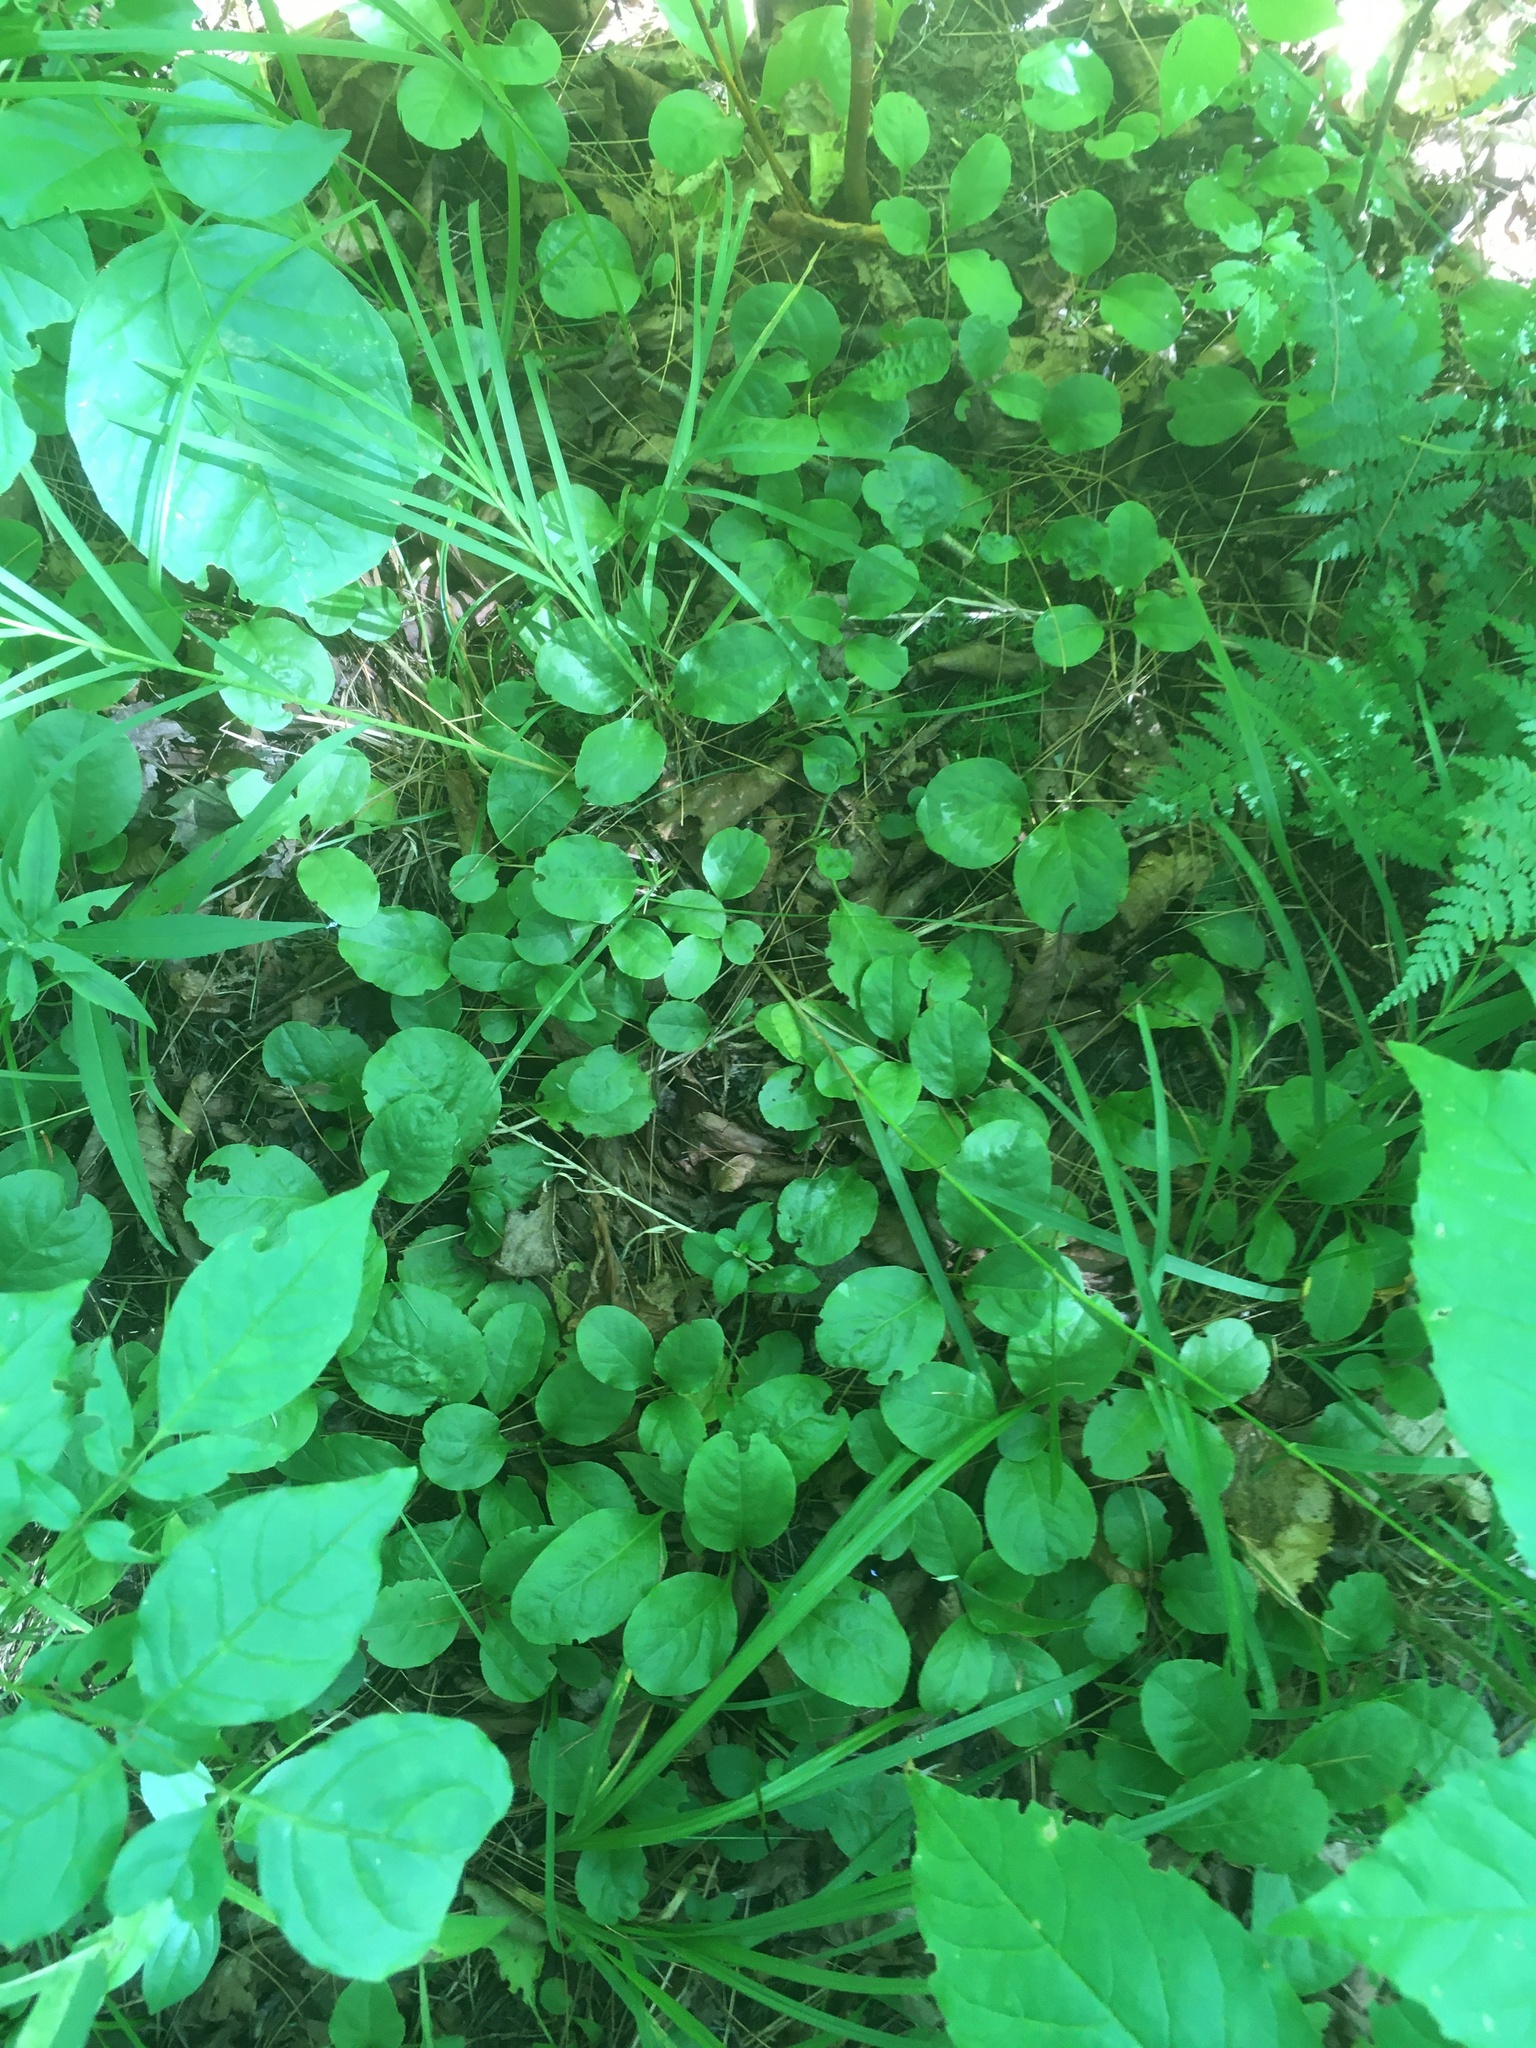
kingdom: Plantae
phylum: Tracheophyta
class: Magnoliopsida
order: Ericales
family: Ericaceae
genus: Pyrola
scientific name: Pyrola elliptica
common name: Shinleaf
